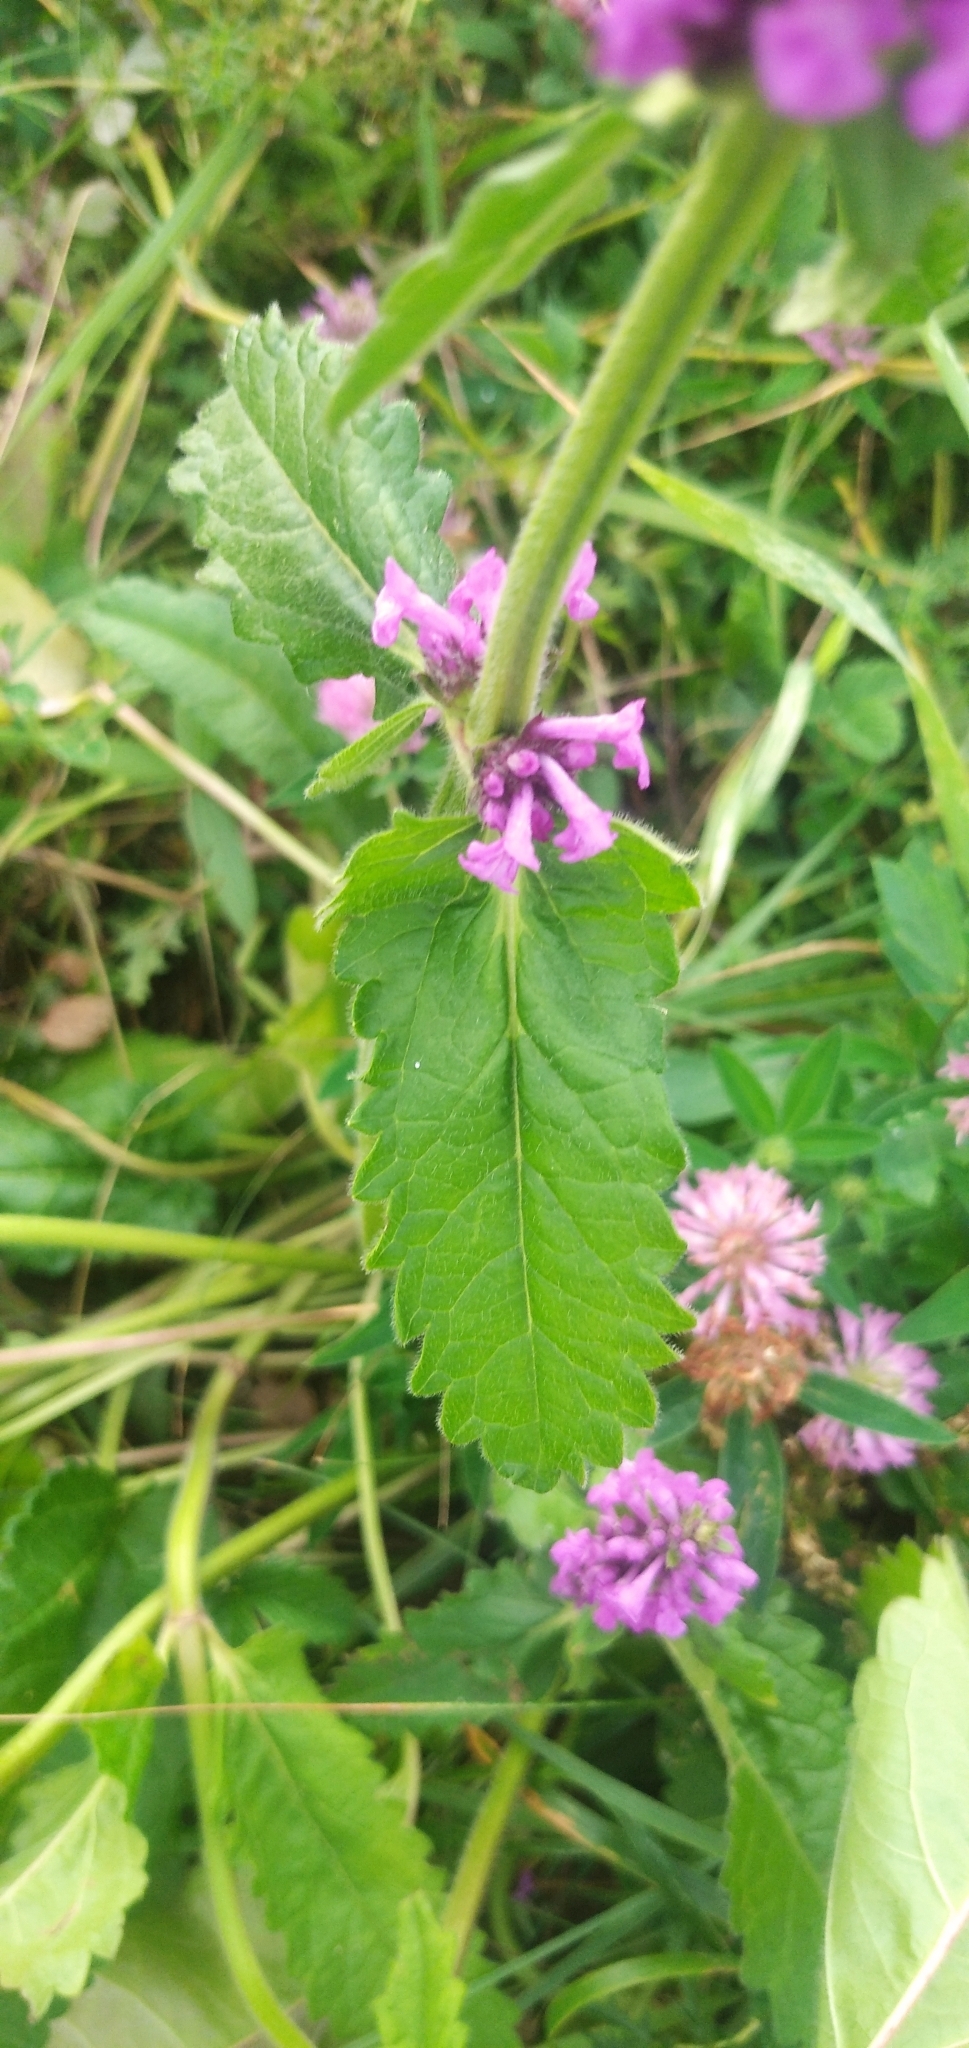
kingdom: Plantae
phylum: Tracheophyta
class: Magnoliopsida
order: Lamiales
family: Lamiaceae
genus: Betonica
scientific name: Betonica officinalis
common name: Bishop's-wort
